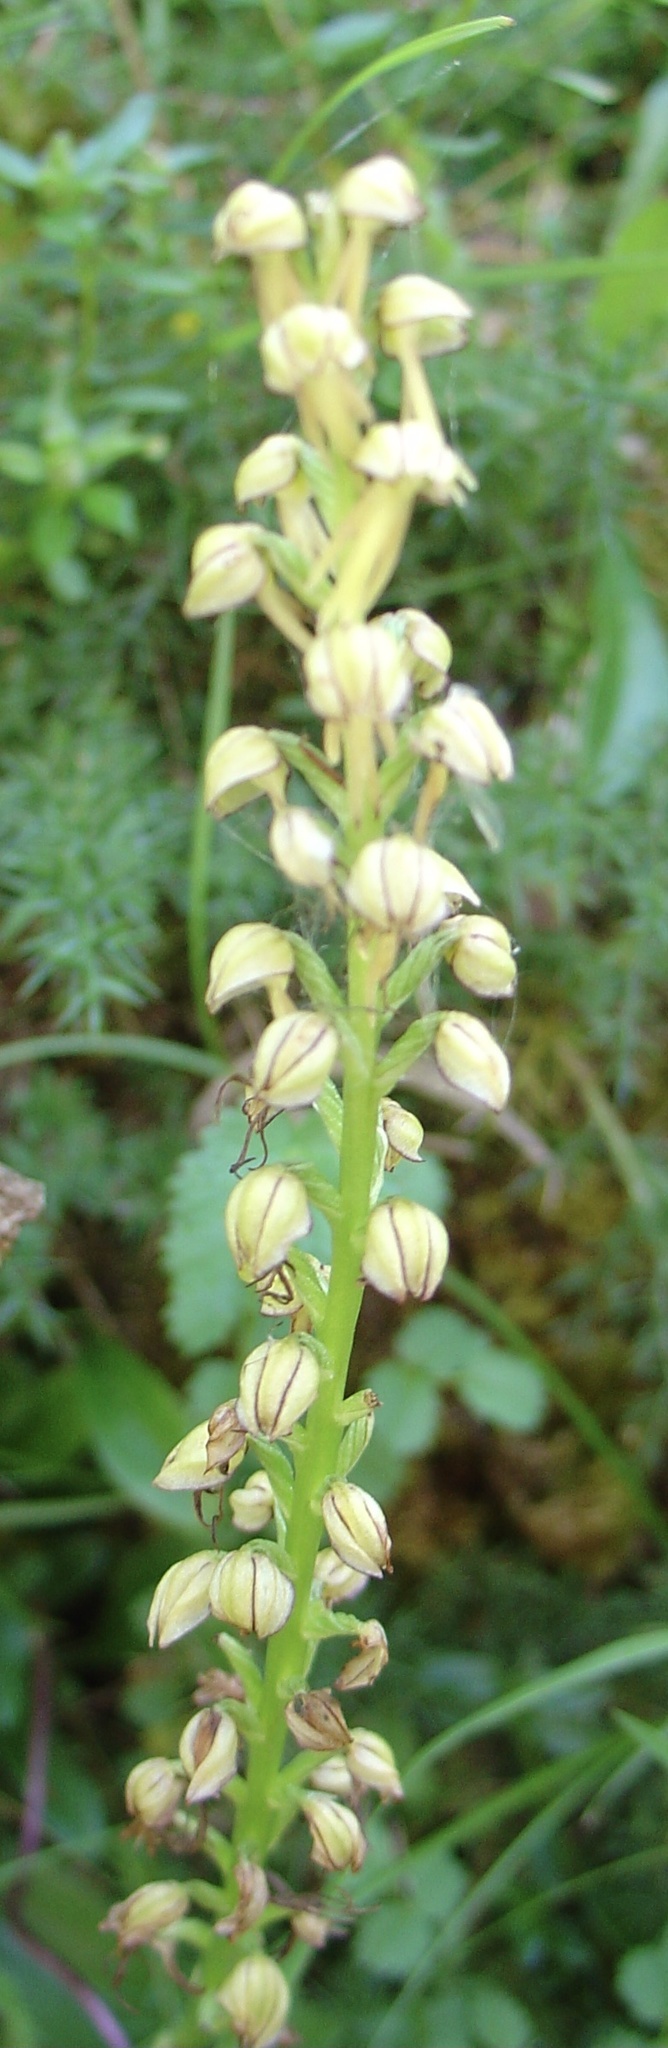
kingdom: Plantae
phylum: Tracheophyta
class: Liliopsida
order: Asparagales
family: Orchidaceae
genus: Orchis
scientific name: Orchis anthropophora
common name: Man orchid
